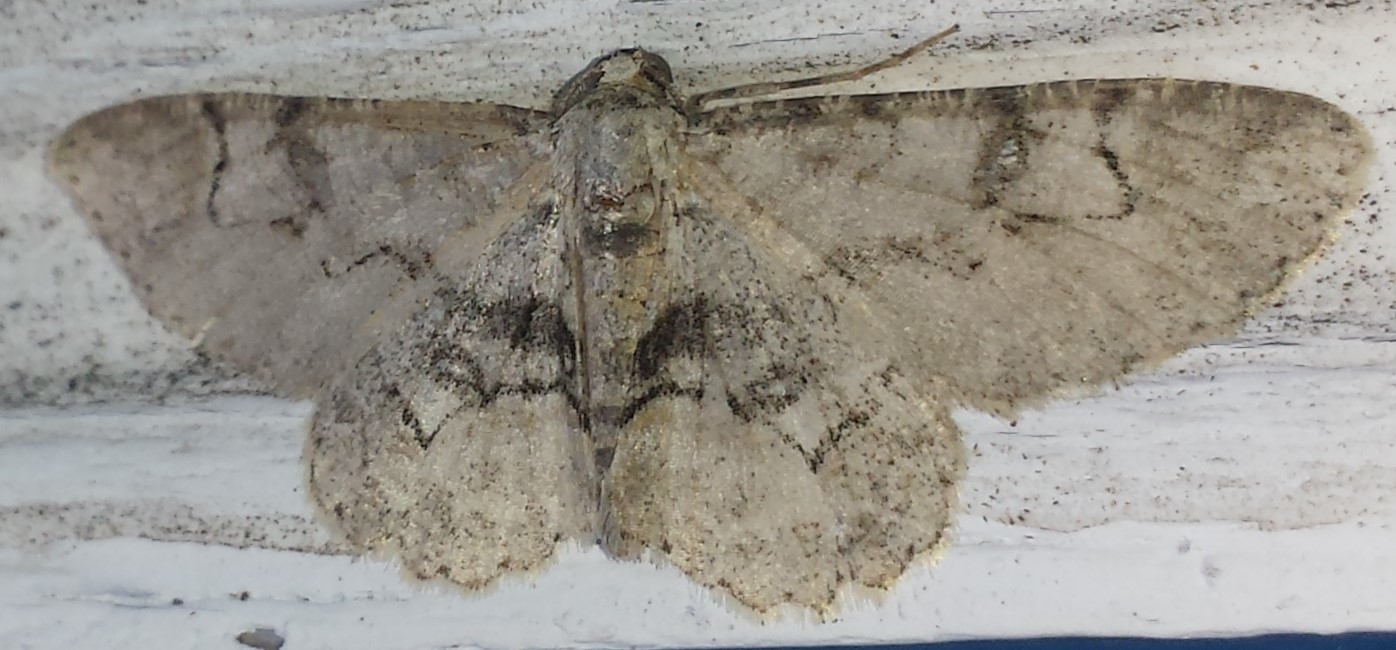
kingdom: Animalia
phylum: Arthropoda
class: Insecta
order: Lepidoptera
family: Geometridae
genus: Iridopsis
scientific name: Iridopsis larvaria
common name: Bent-line gray
